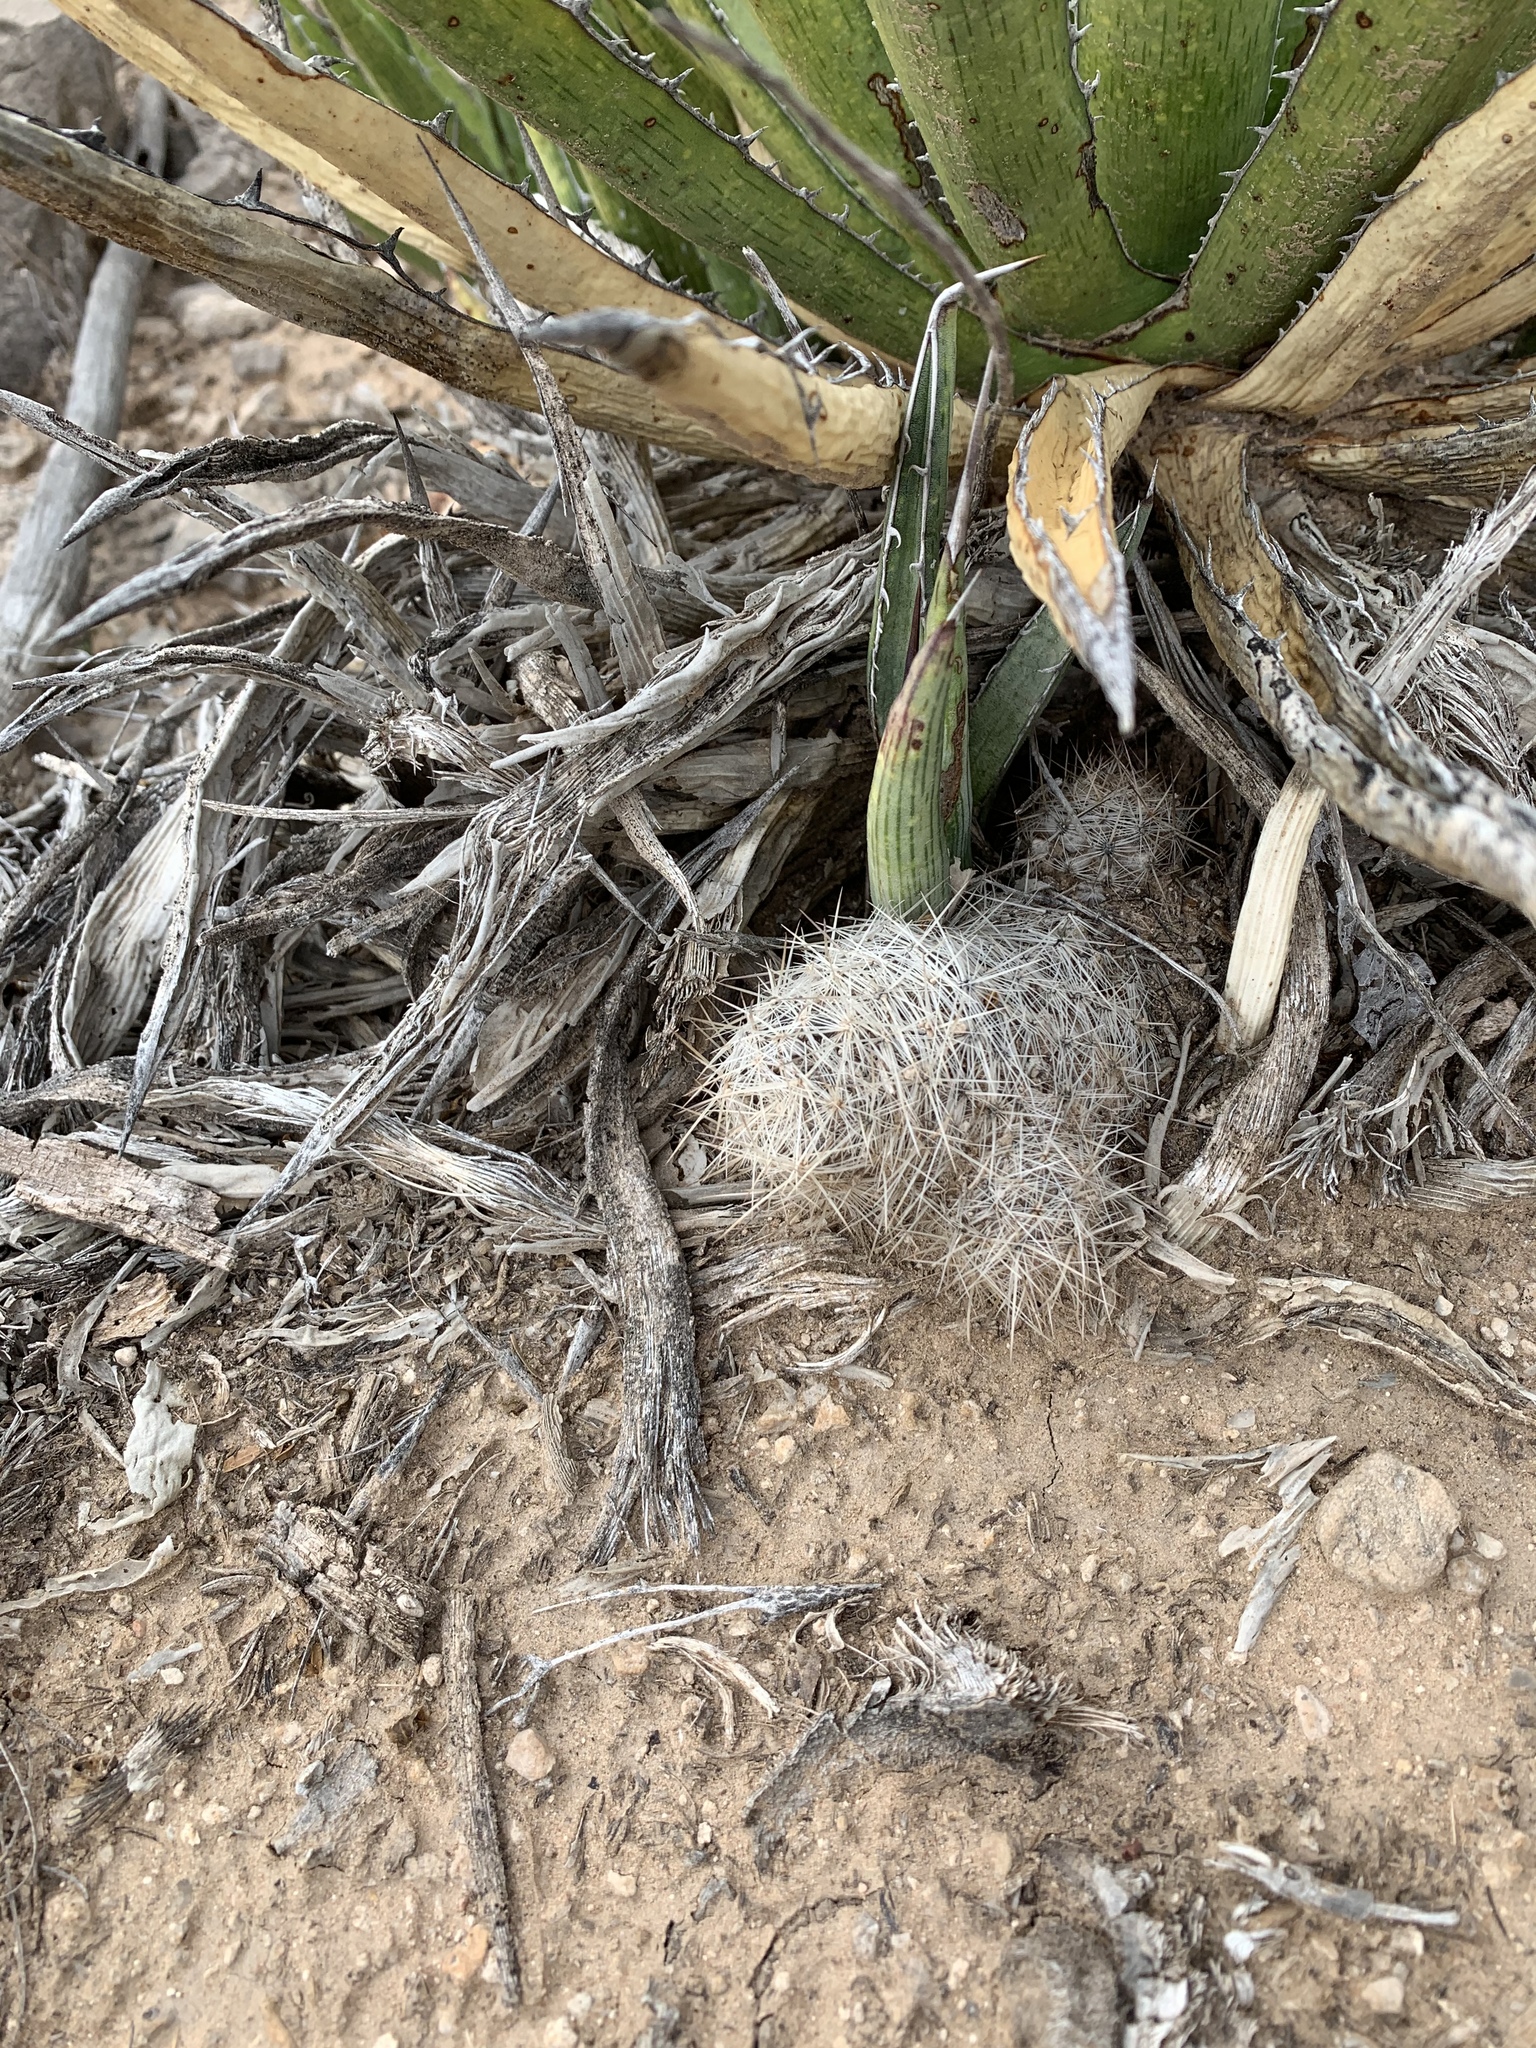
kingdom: Plantae
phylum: Tracheophyta
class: Magnoliopsida
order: Caryophyllales
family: Cactaceae
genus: Pelecyphora
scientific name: Pelecyphora tuberculosa
